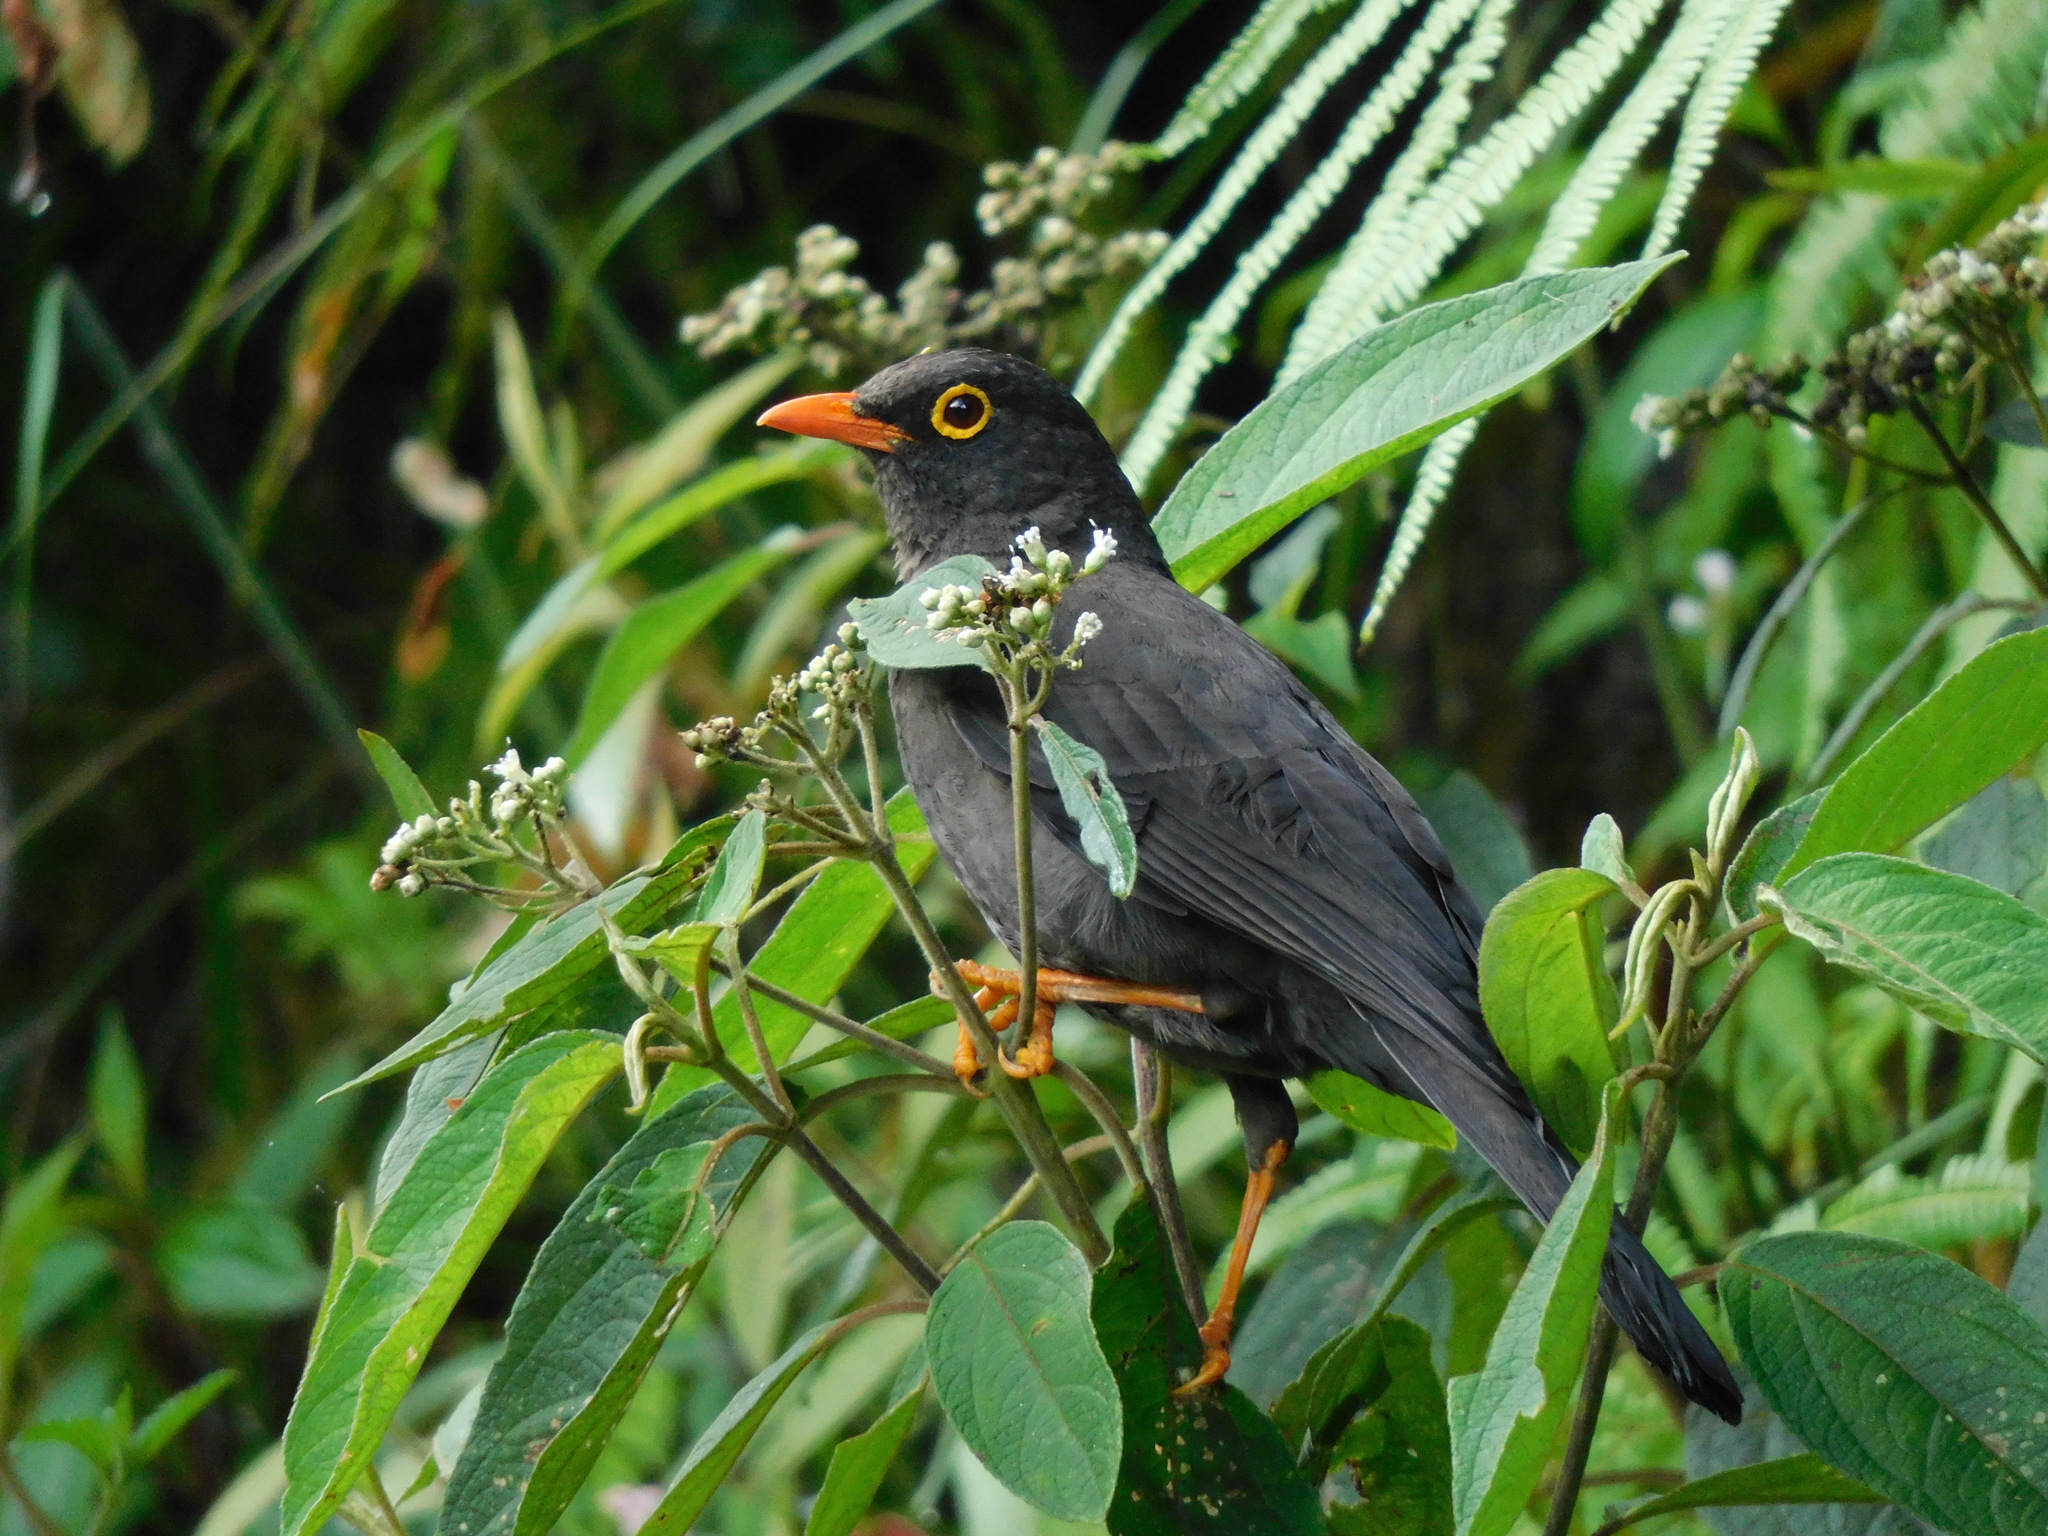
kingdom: Animalia
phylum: Chordata
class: Aves
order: Passeriformes
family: Turdidae
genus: Turdus
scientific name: Turdus fuscater
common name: Great thrush
